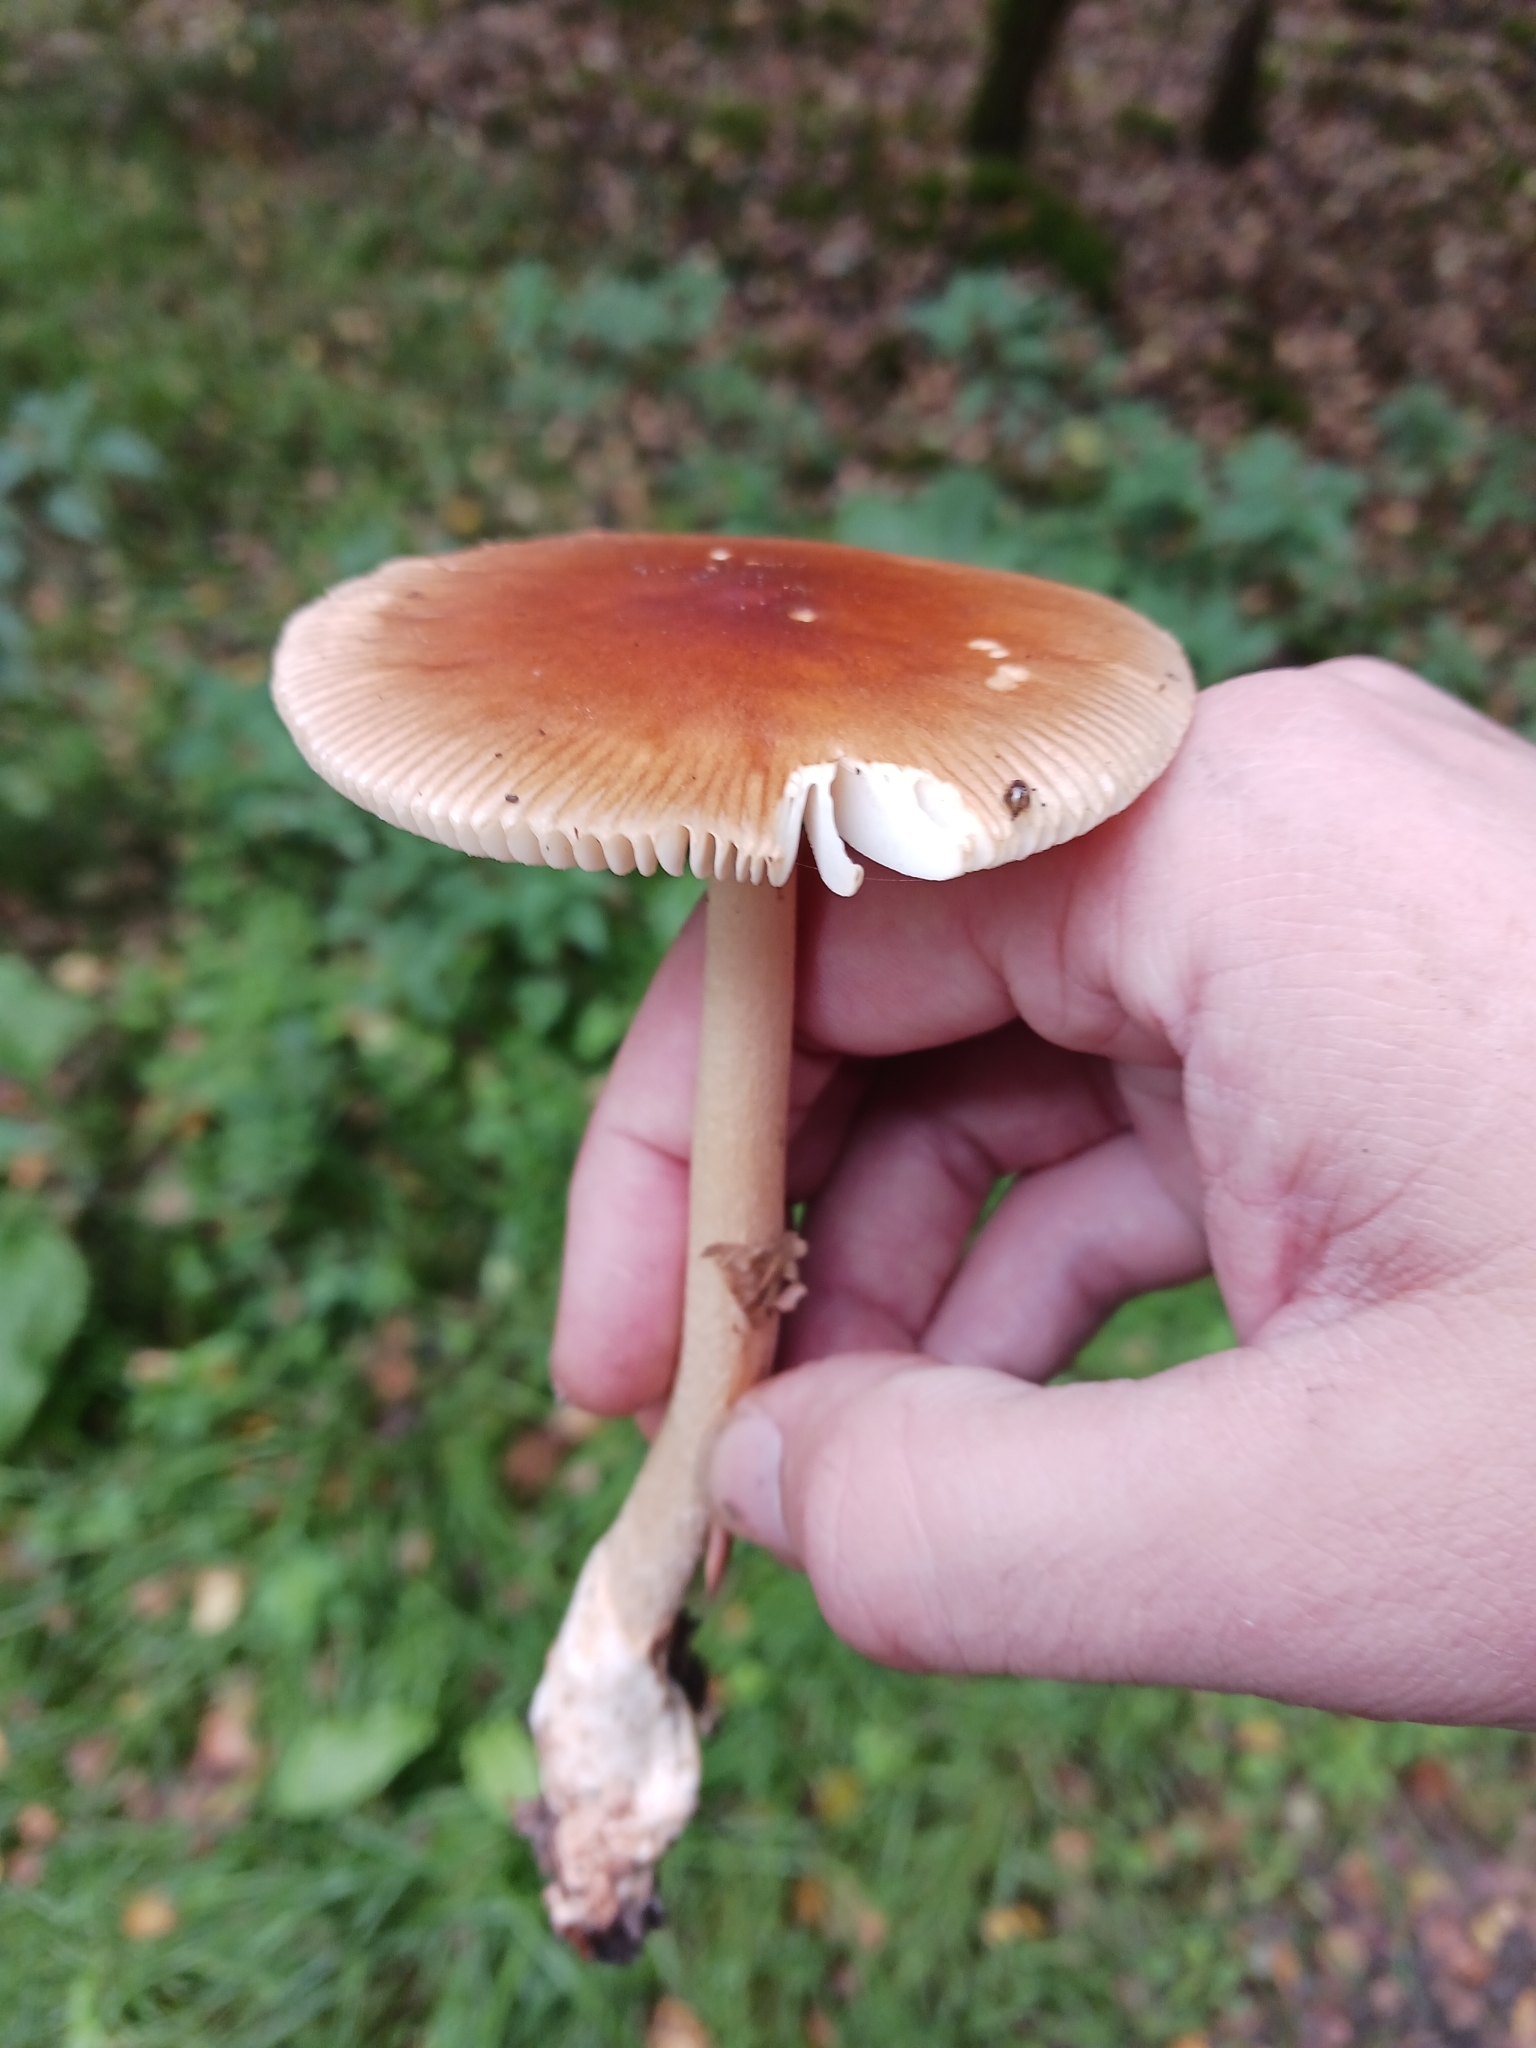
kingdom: Fungi
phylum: Basidiomycota
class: Agaricomycetes
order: Agaricales
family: Amanitaceae
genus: Amanita
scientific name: Amanita fulva
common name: Tawny grisette
